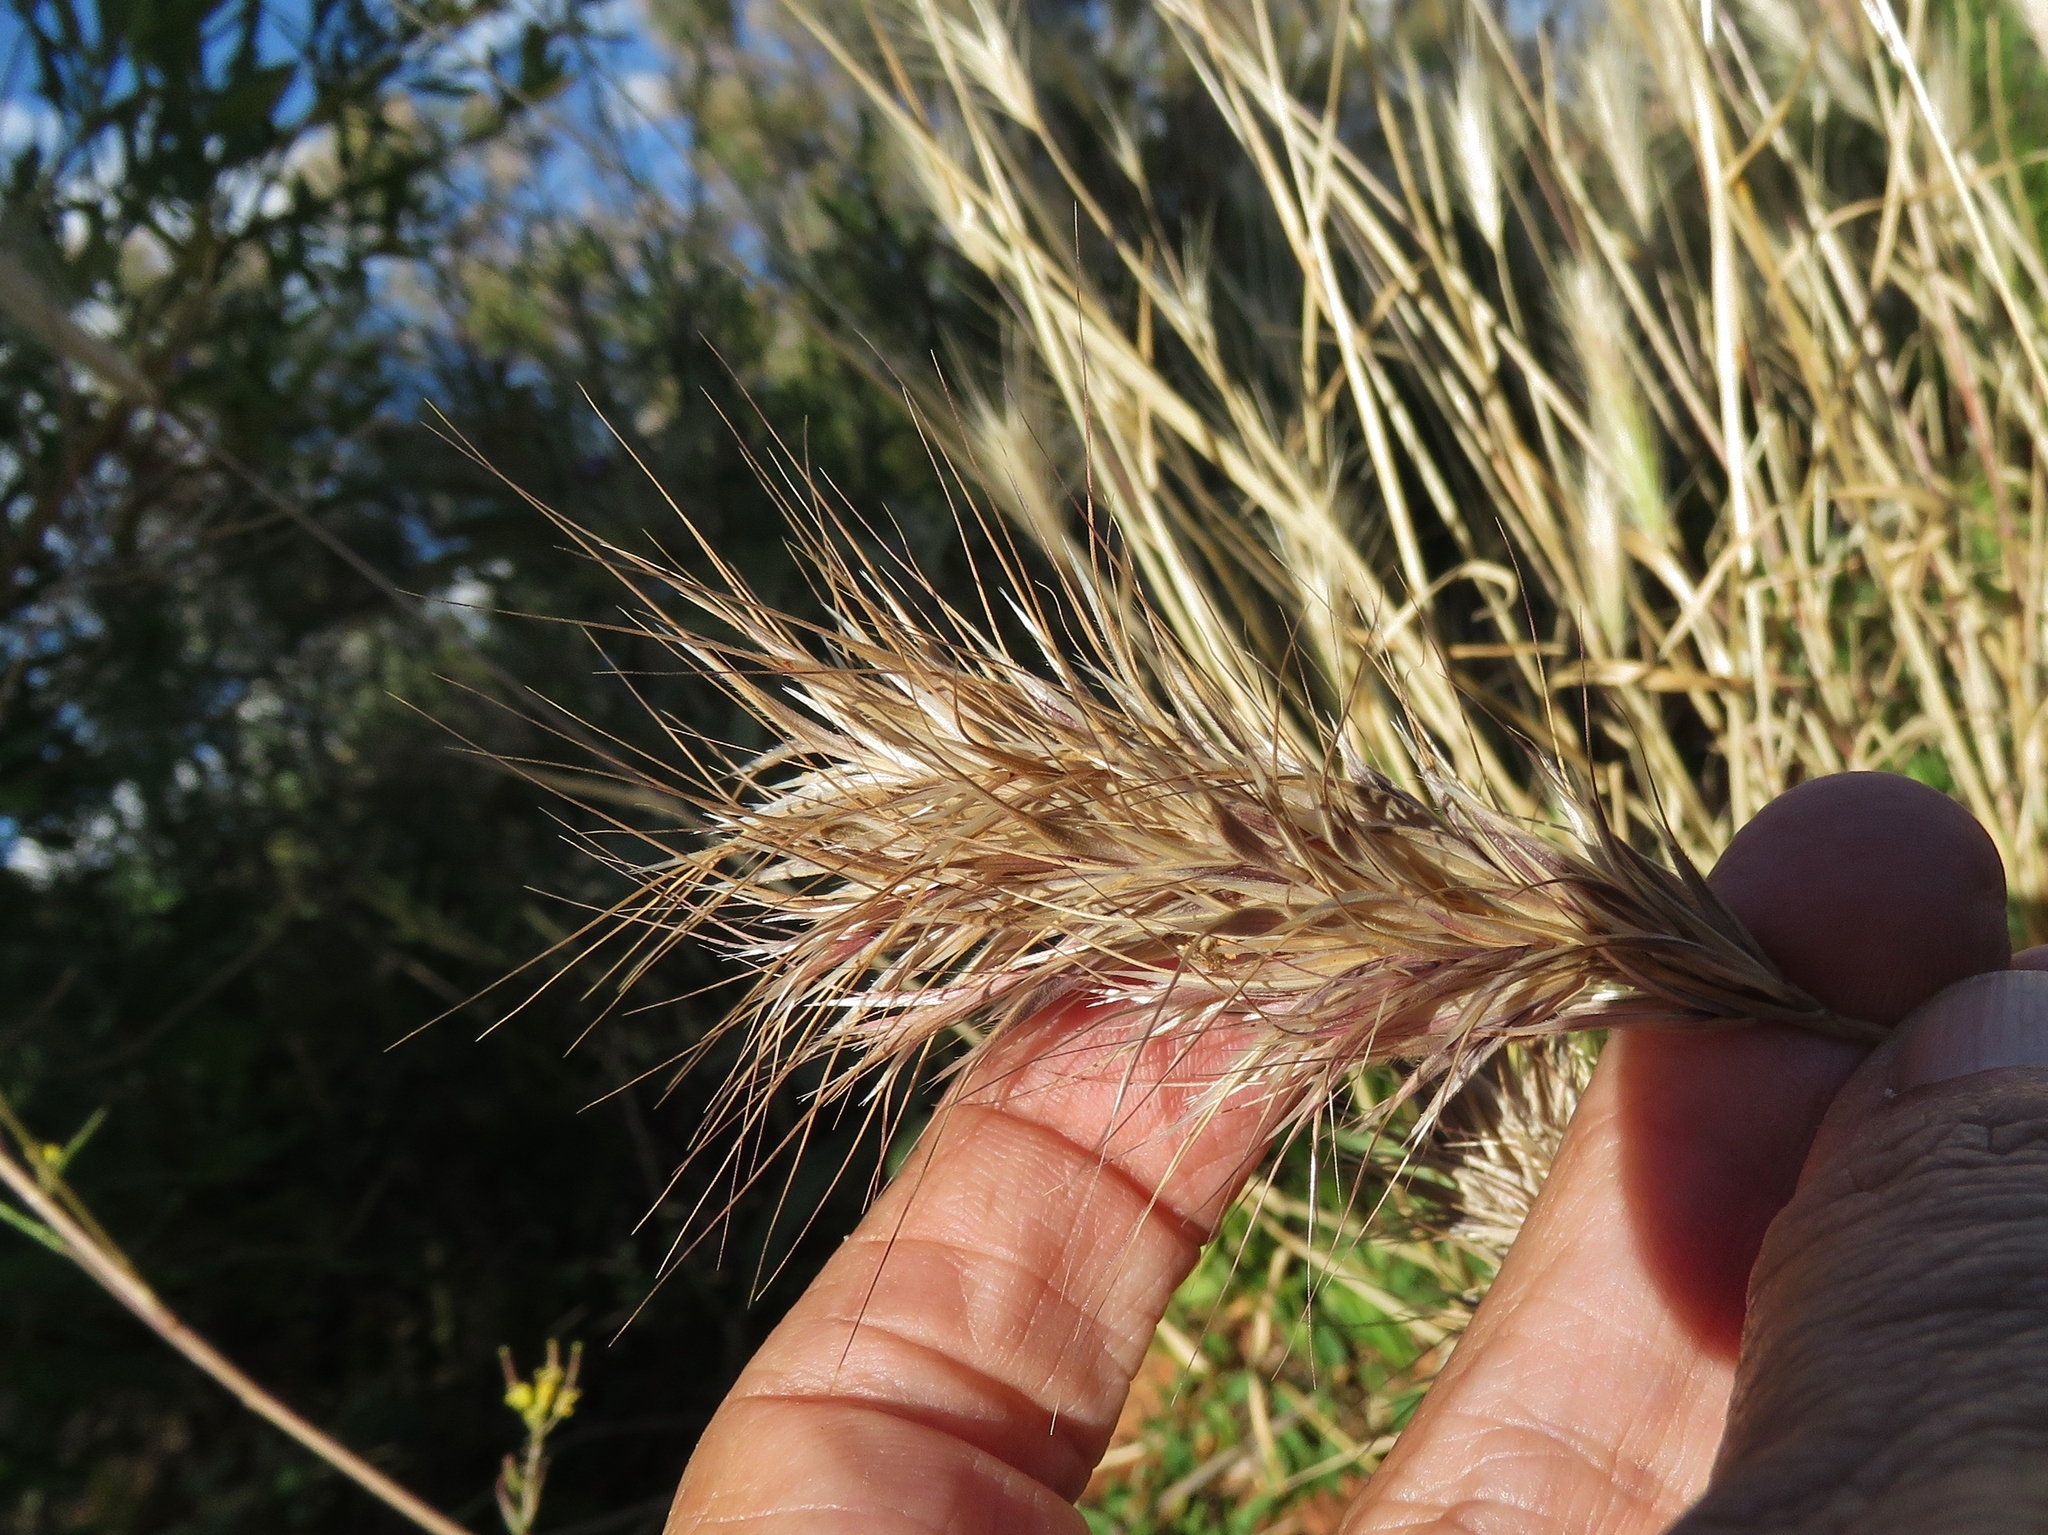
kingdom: Plantae
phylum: Tracheophyta
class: Liliopsida
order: Poales
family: Poaceae
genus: Bromus
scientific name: Bromus rubens
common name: Red brome
